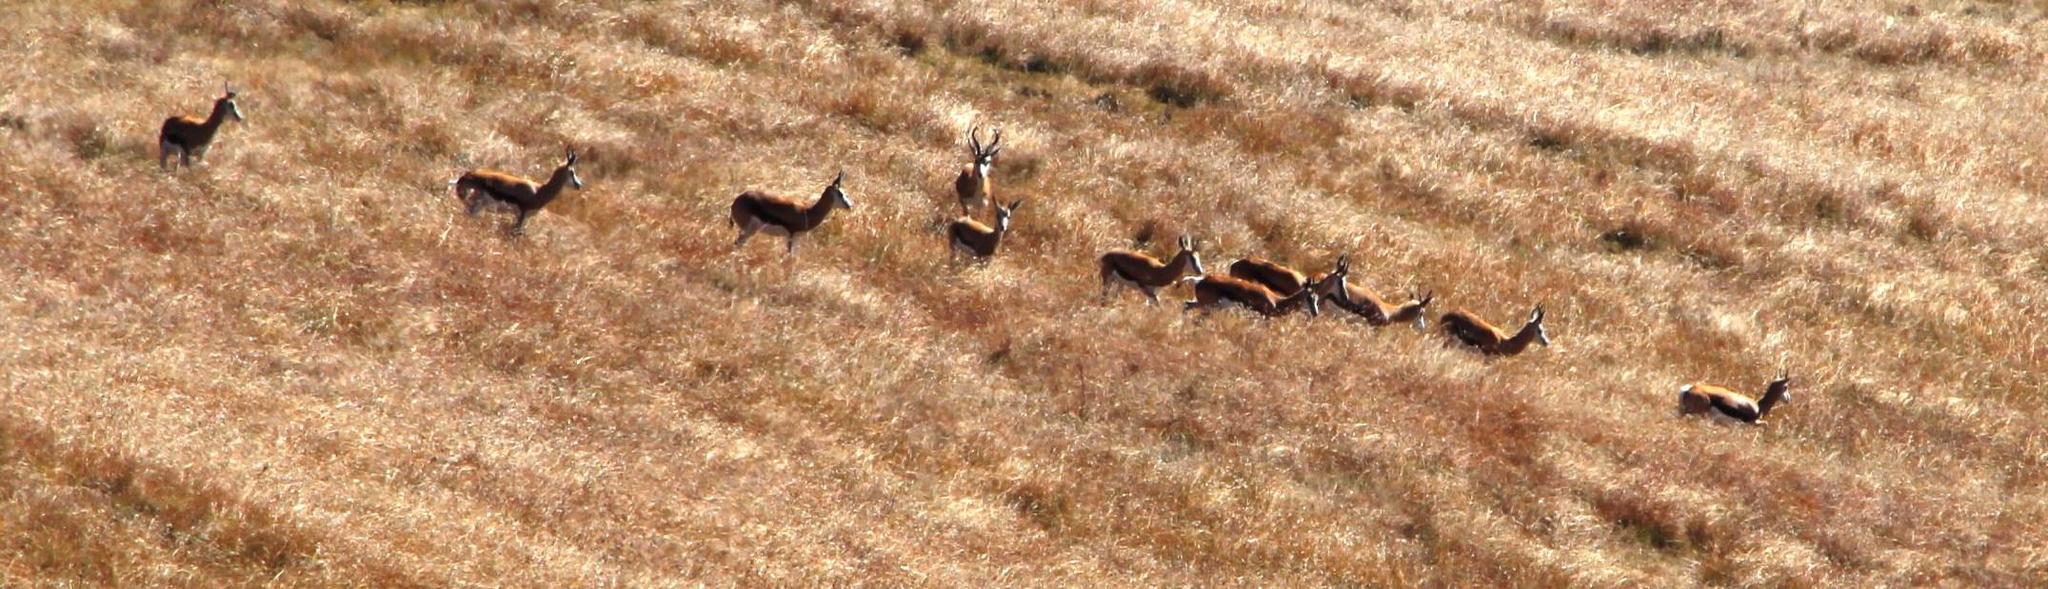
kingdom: Animalia
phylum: Chordata
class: Mammalia
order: Artiodactyla
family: Bovidae
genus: Antidorcas
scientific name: Antidorcas marsupialis
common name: Springbok
